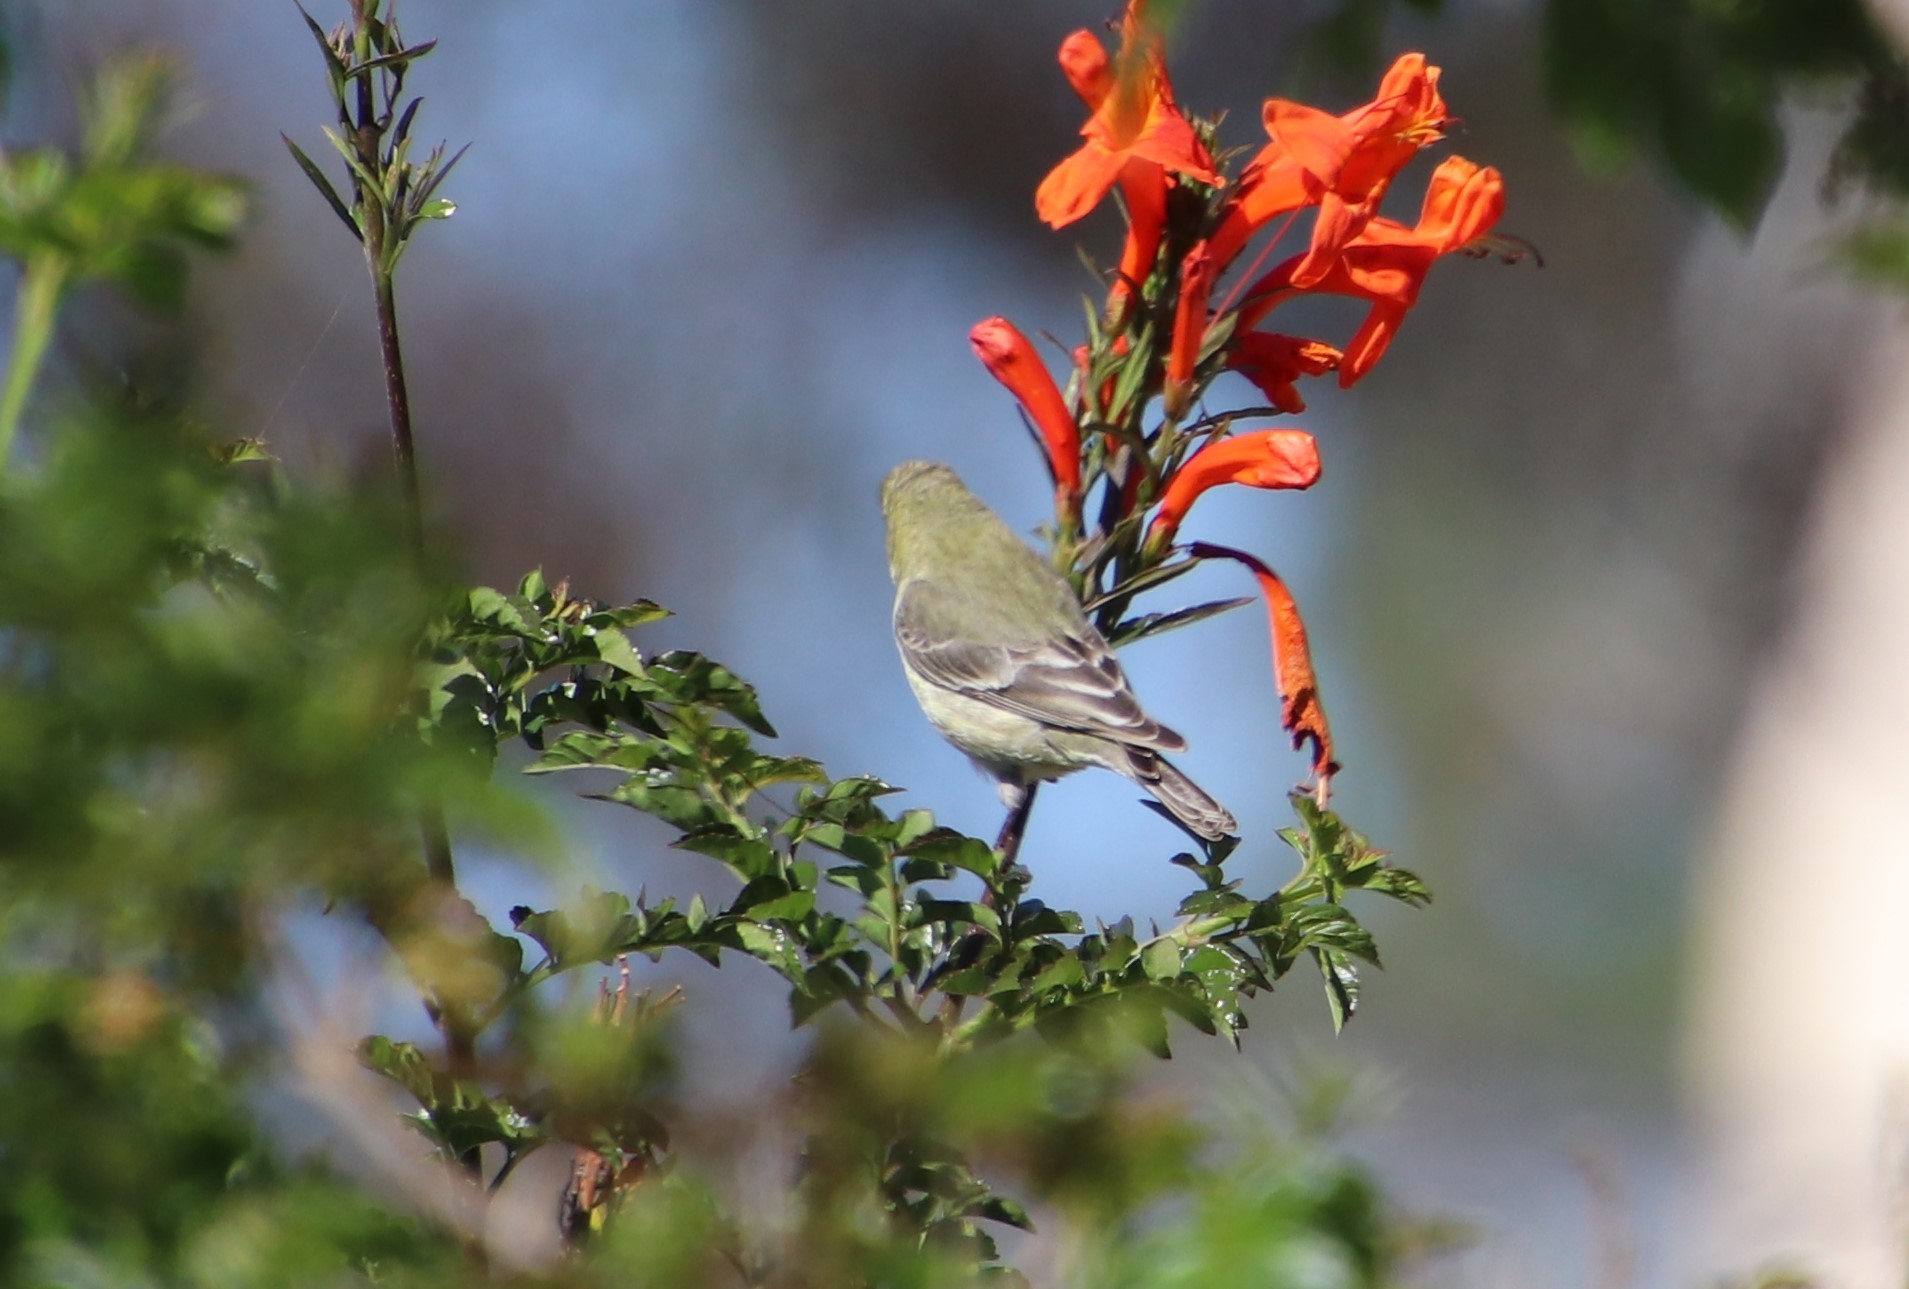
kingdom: Animalia
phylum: Chordata
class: Aves
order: Passeriformes
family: Fringillidae
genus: Spinus
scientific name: Spinus psaltria
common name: Lesser goldfinch
